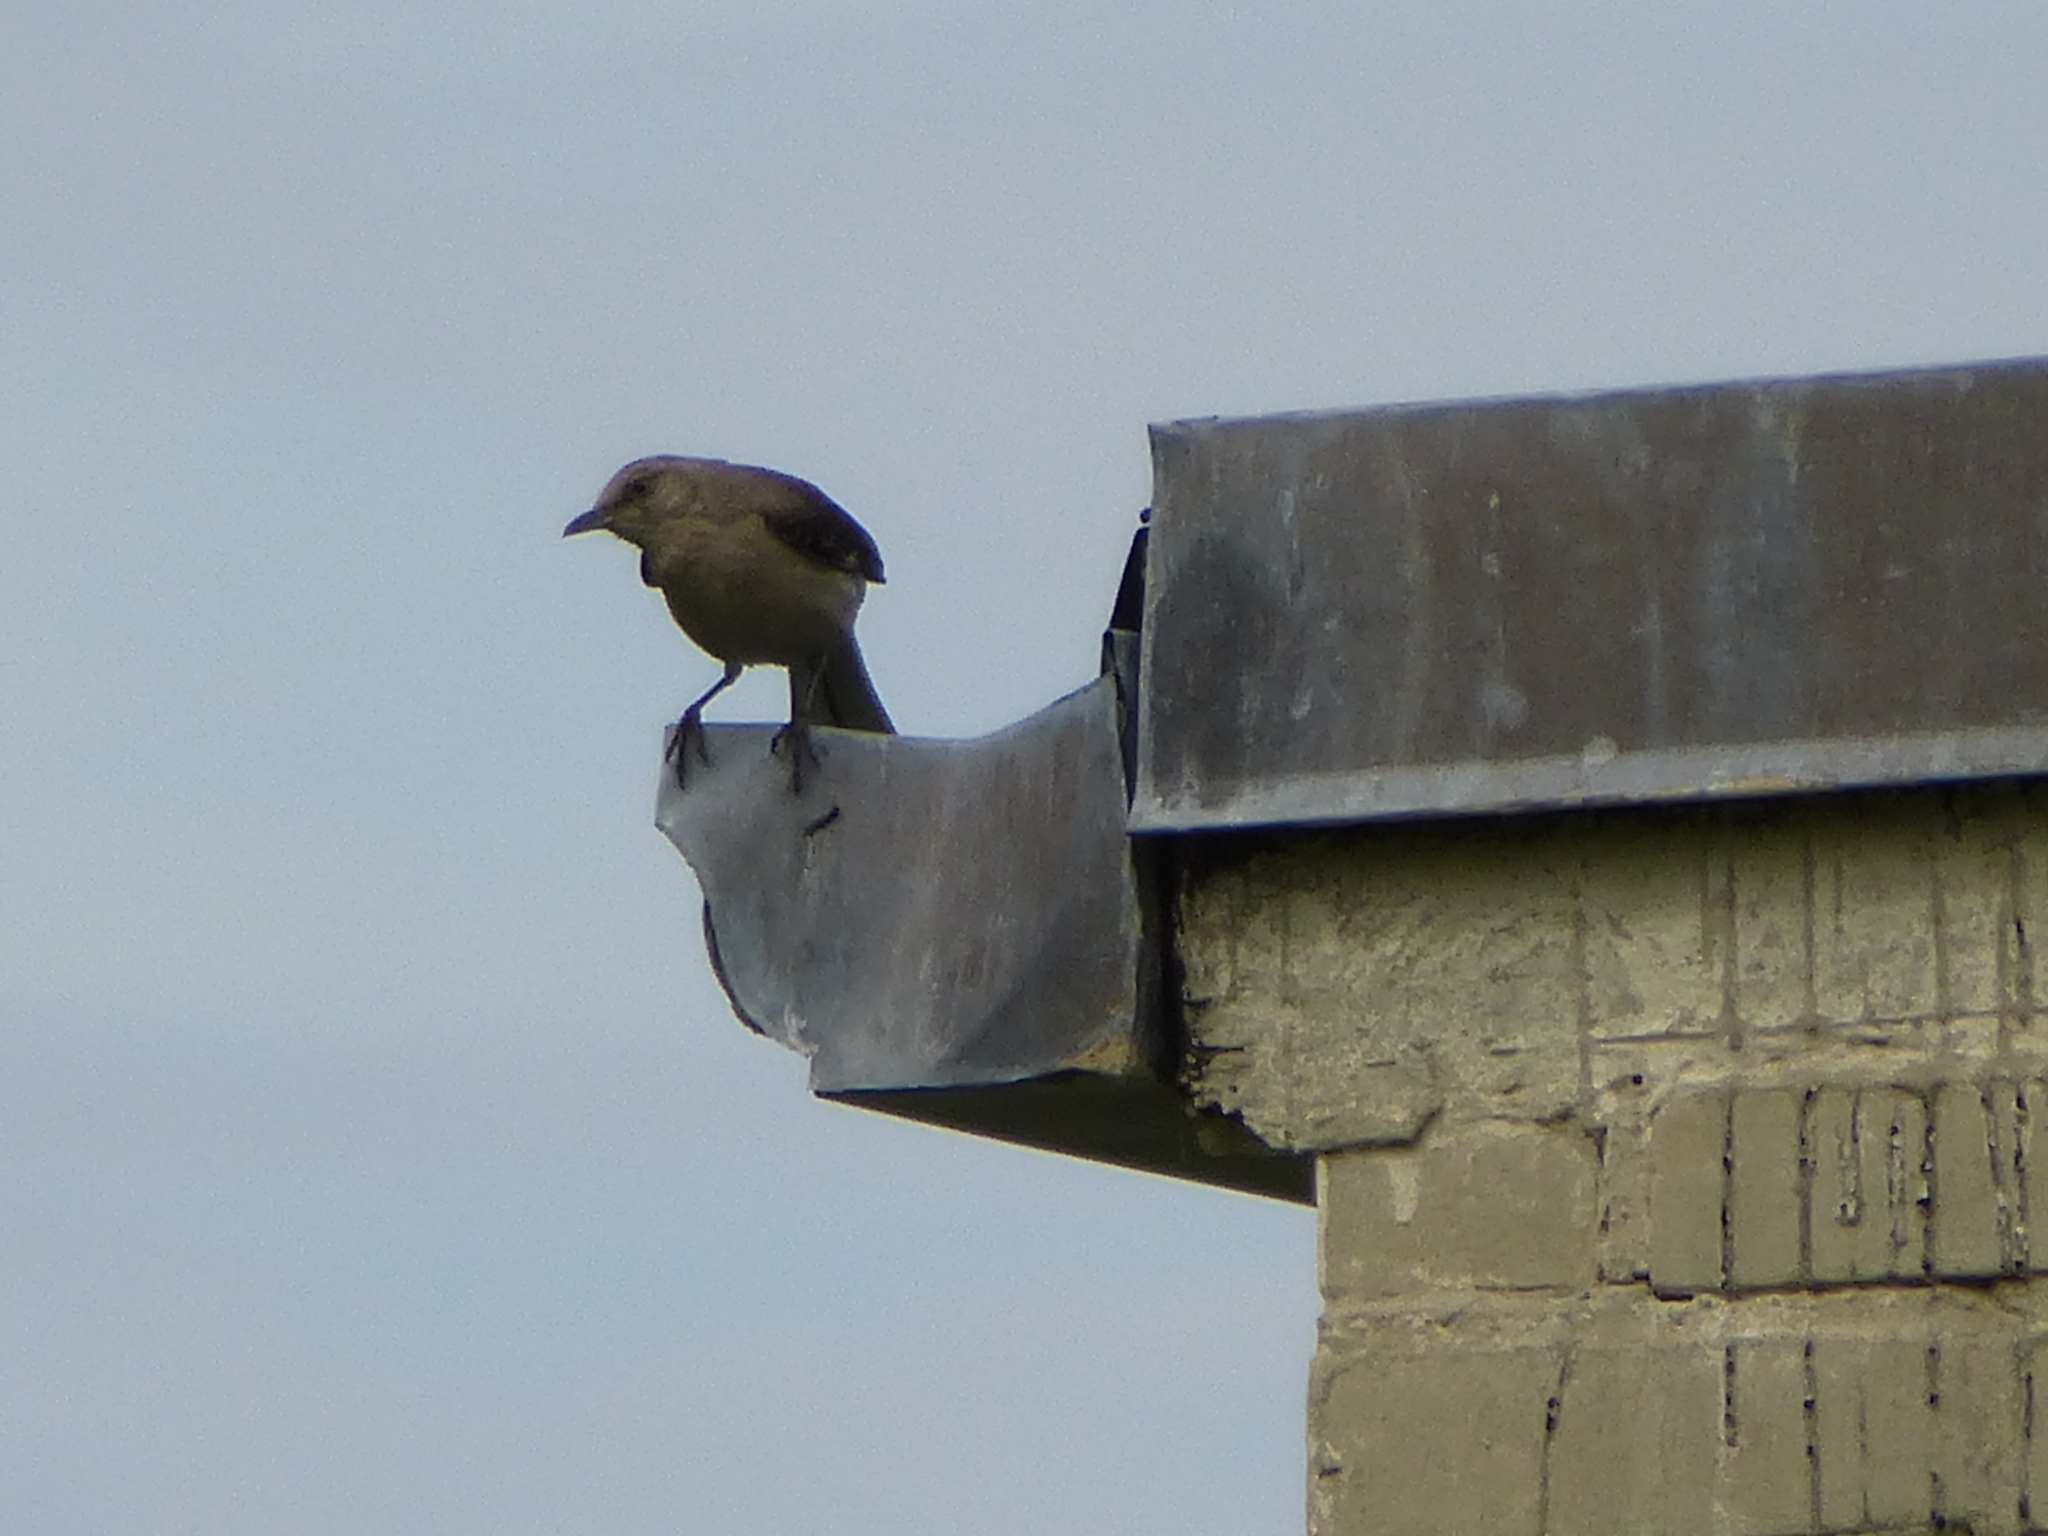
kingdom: Animalia
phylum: Chordata
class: Aves
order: Passeriformes
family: Mimidae
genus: Mimus
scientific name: Mimus polyglottos
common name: Northern mockingbird
